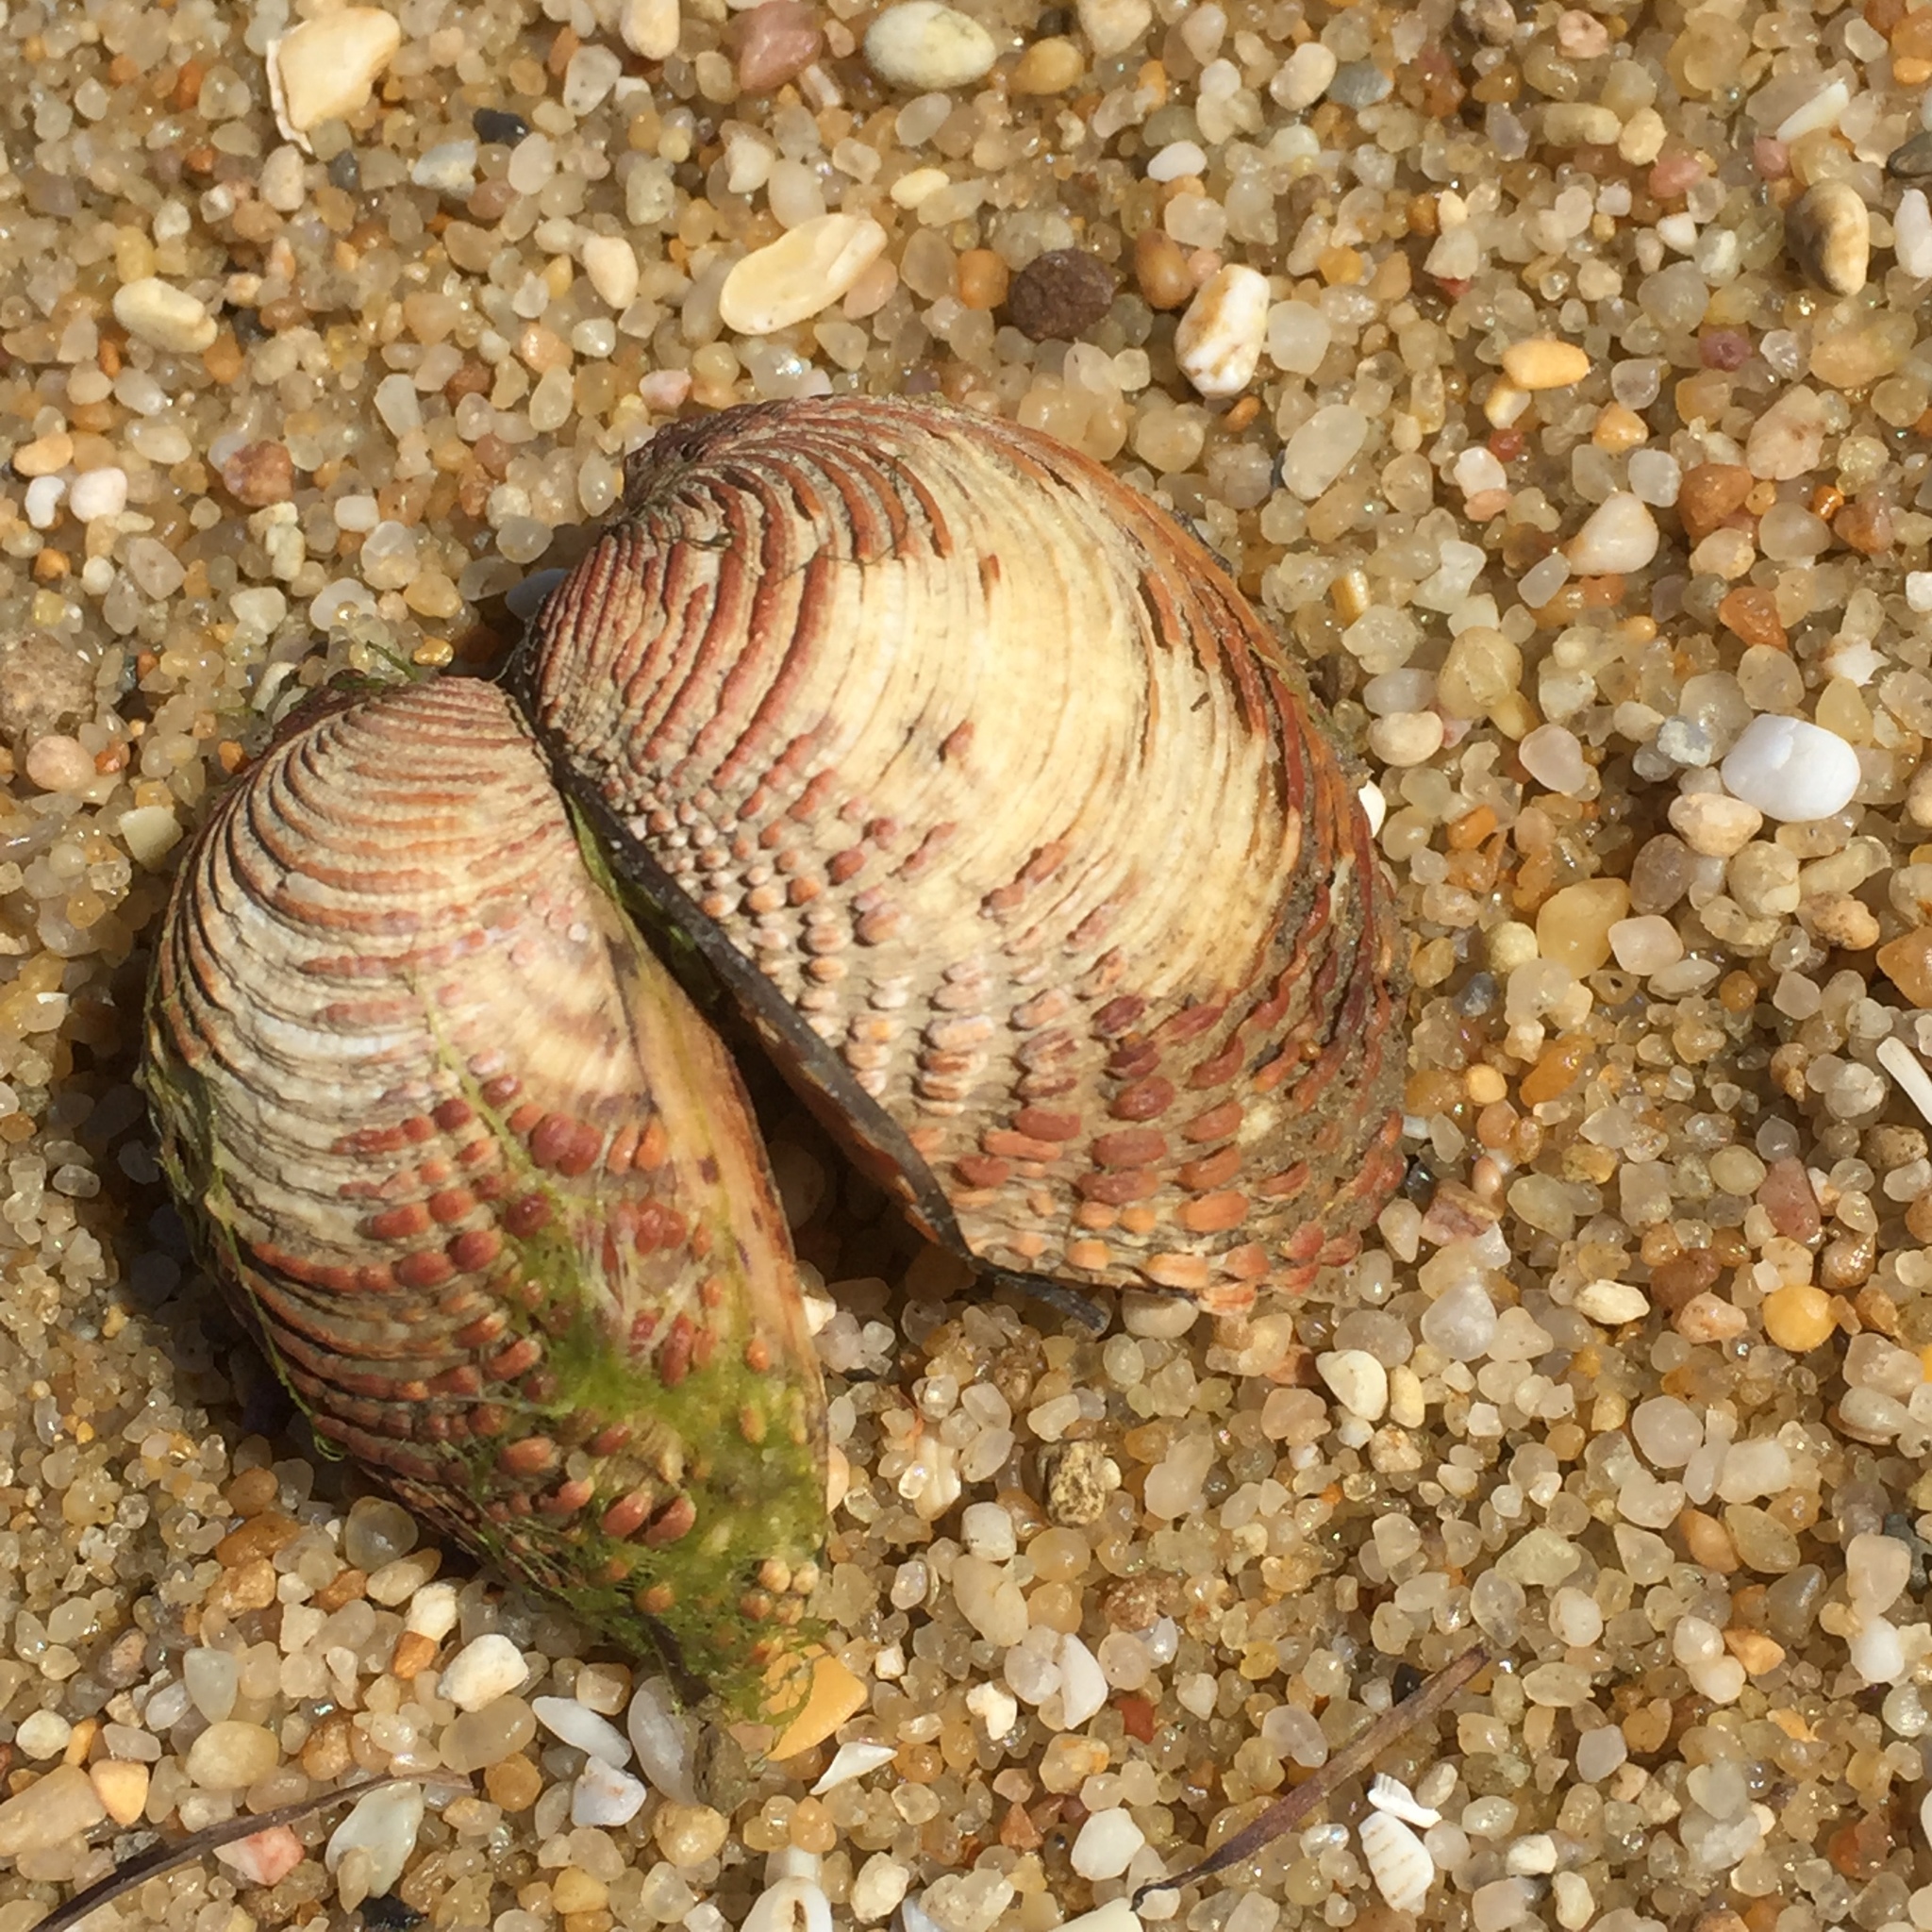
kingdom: Animalia
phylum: Mollusca
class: Bivalvia
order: Venerida
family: Veneridae
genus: Venus
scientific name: Venus verrucosa
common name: Warty venus
